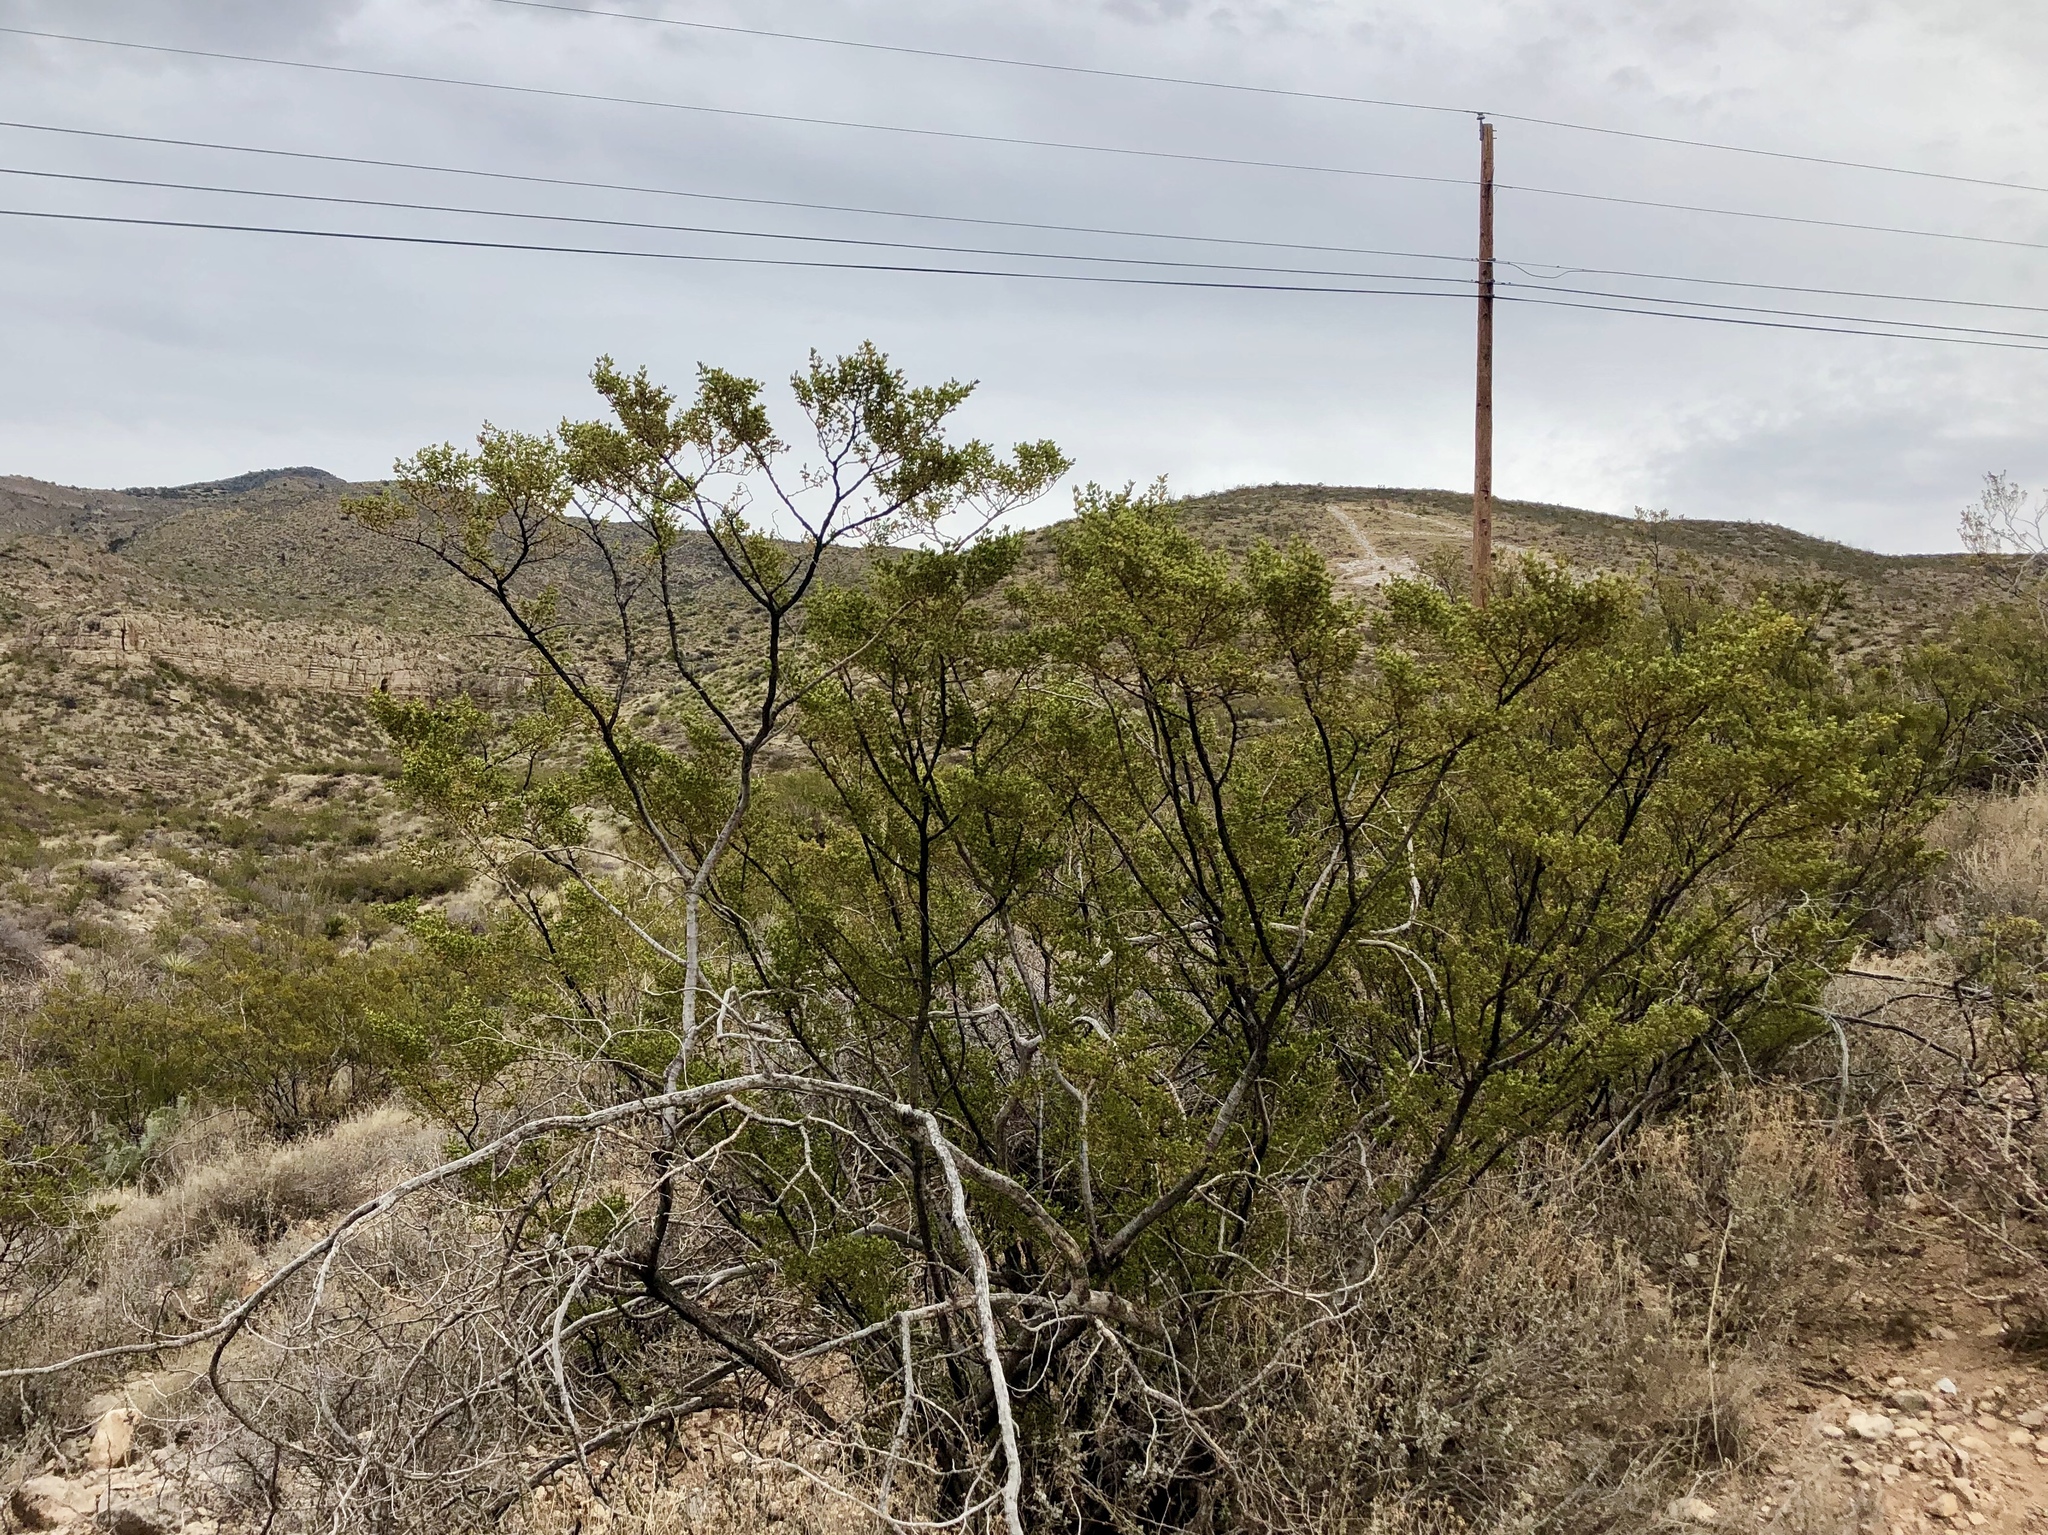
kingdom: Plantae
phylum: Tracheophyta
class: Magnoliopsida
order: Zygophyllales
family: Zygophyllaceae
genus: Larrea
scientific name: Larrea tridentata
